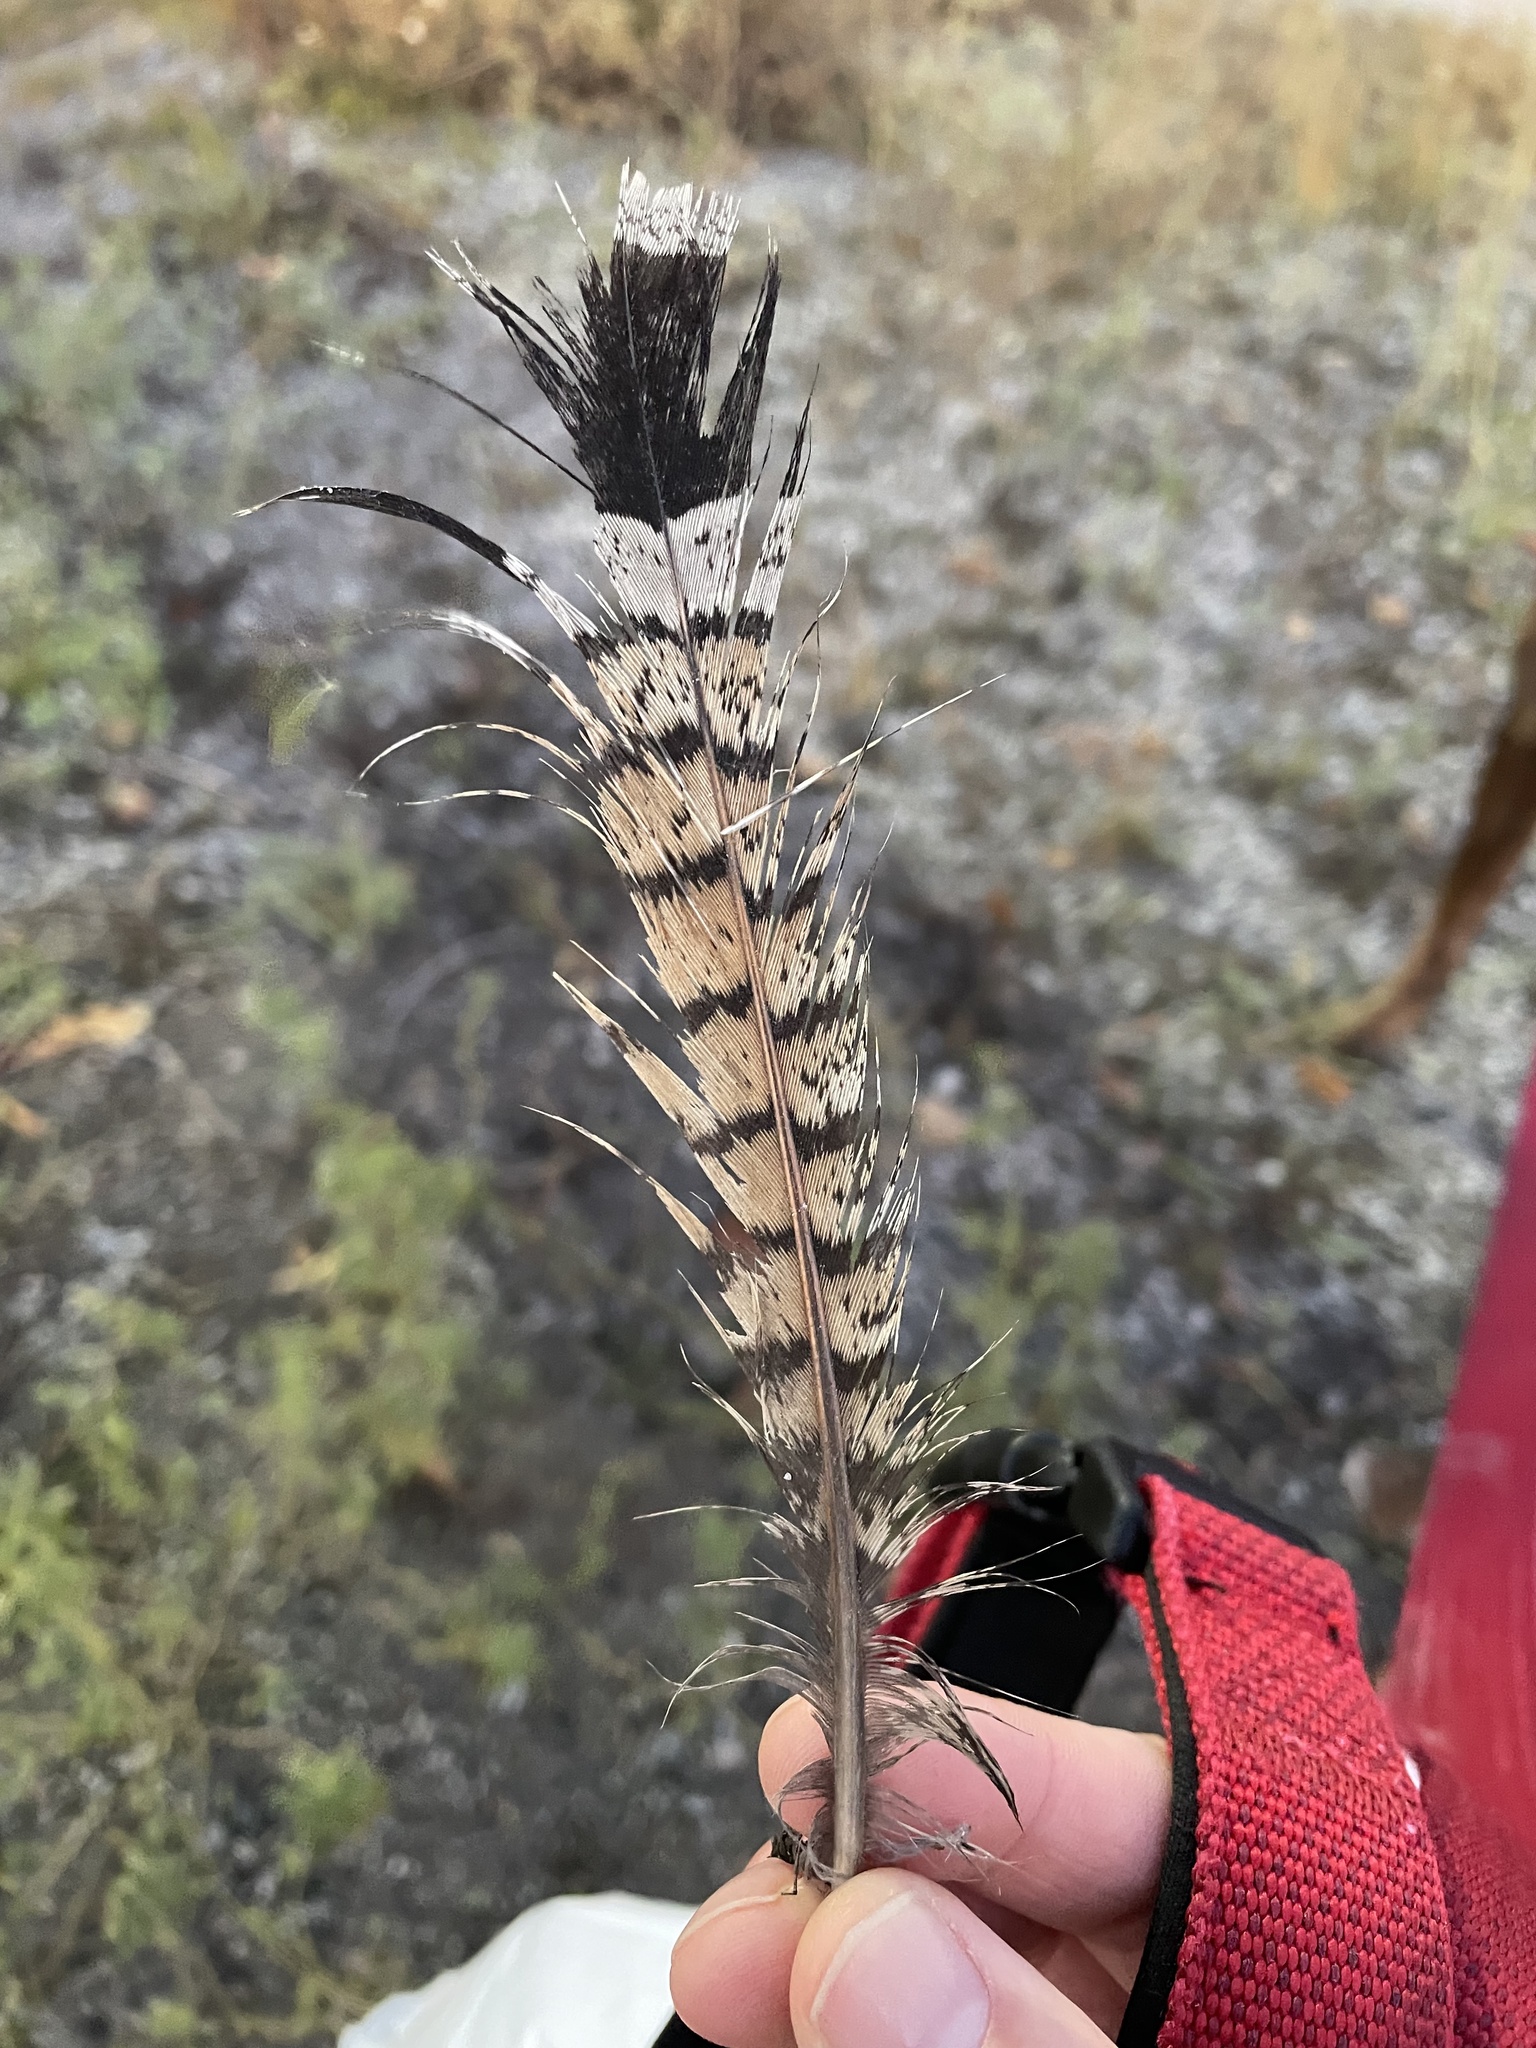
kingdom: Animalia
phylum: Chordata
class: Aves
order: Galliformes
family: Phasianidae
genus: Bonasa
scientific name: Bonasa umbellus
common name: Ruffed grouse
